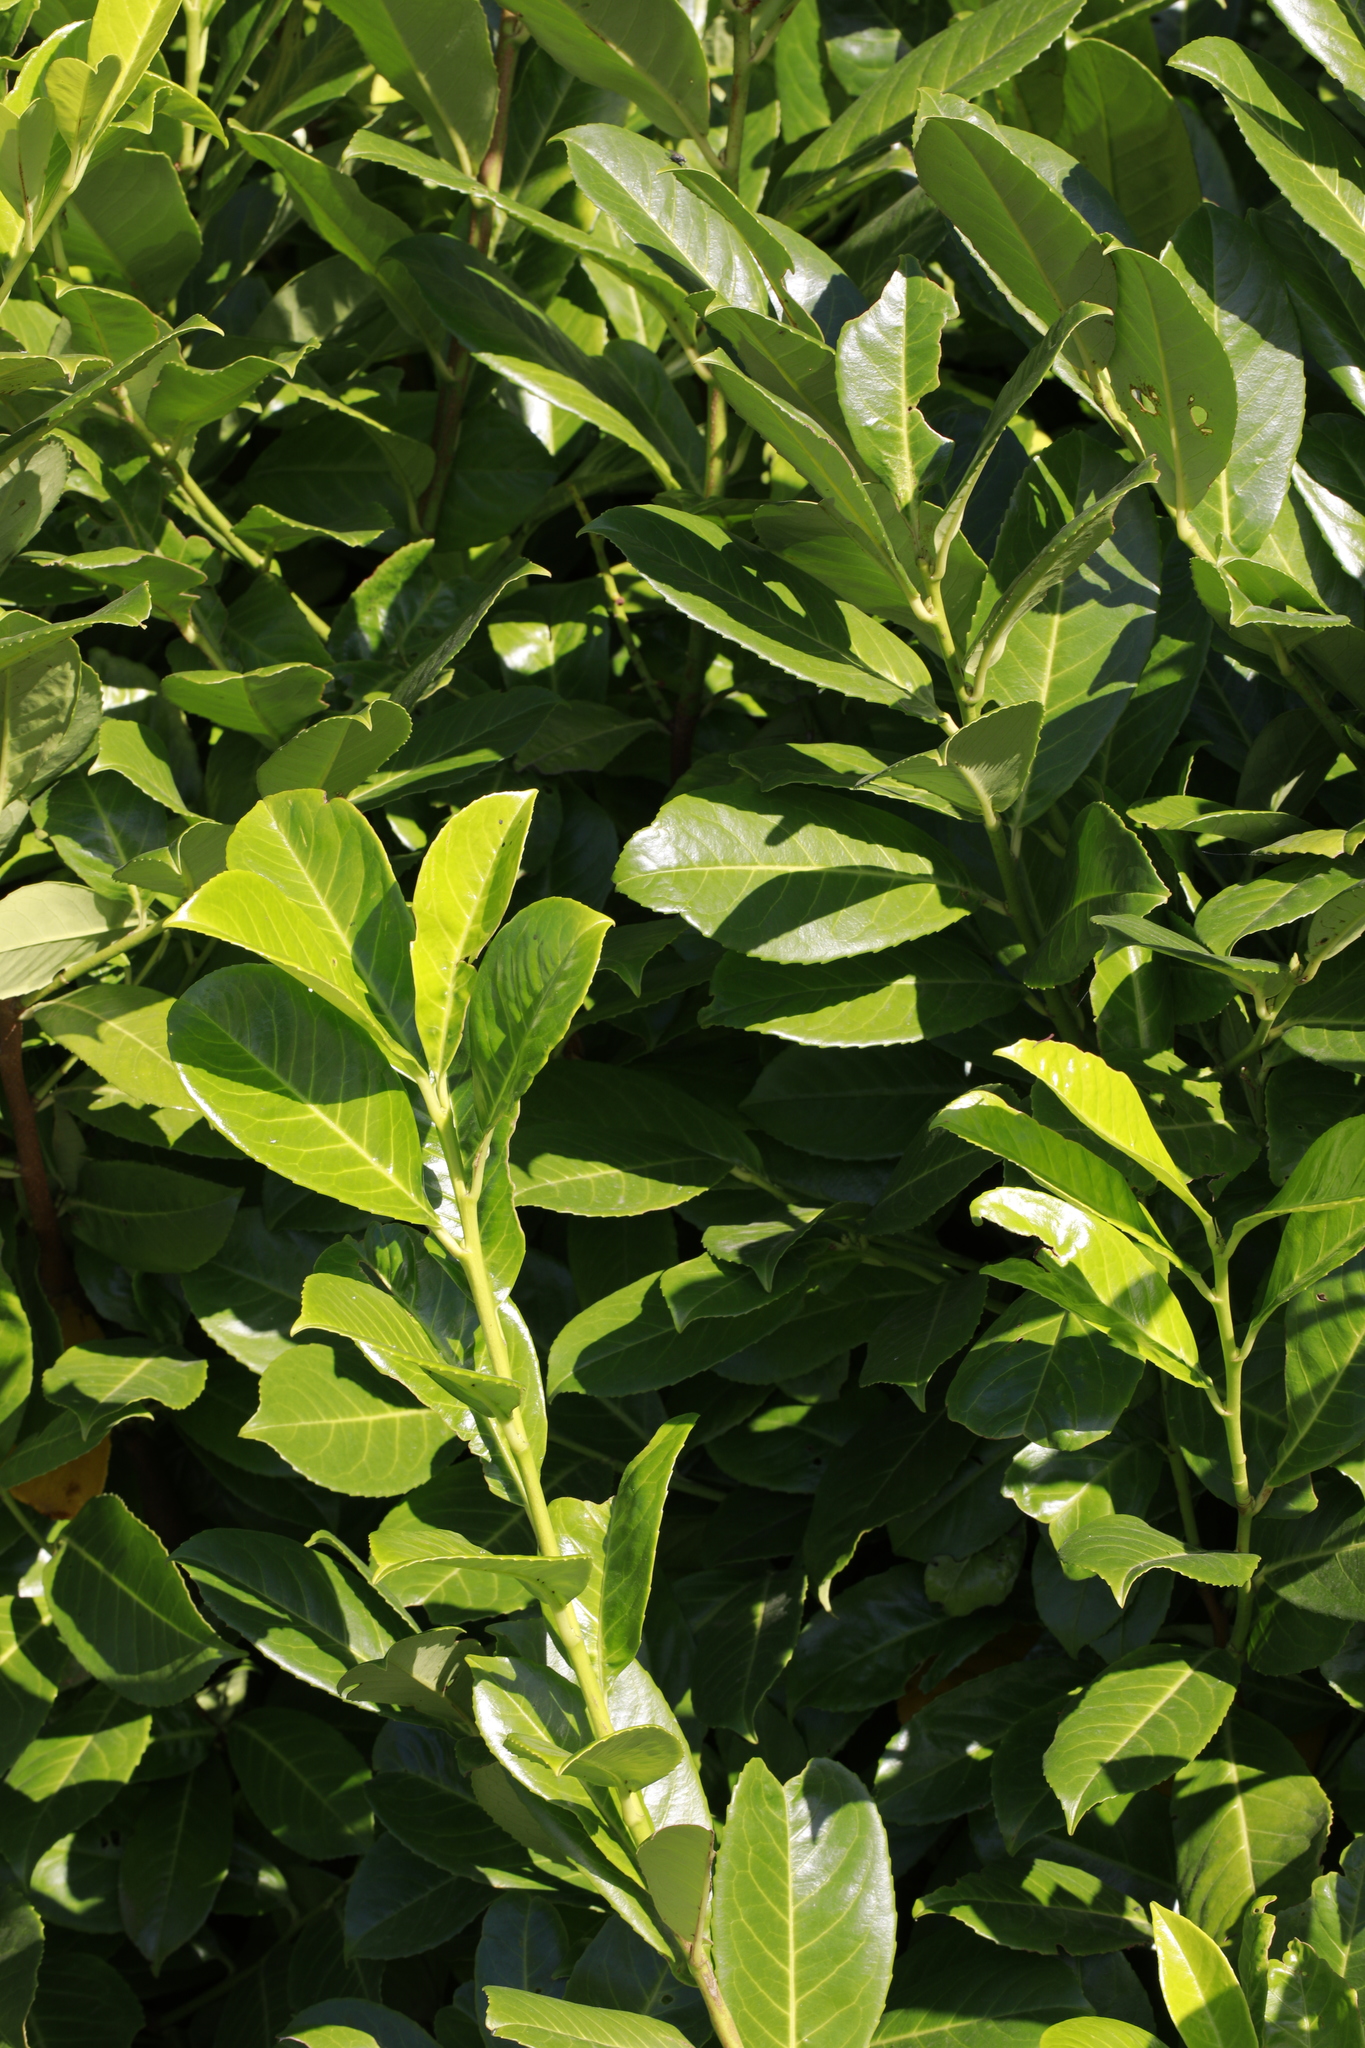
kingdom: Plantae
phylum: Tracheophyta
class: Magnoliopsida
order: Rosales
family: Rosaceae
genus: Prunus
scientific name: Prunus laurocerasus
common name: Cherry laurel
